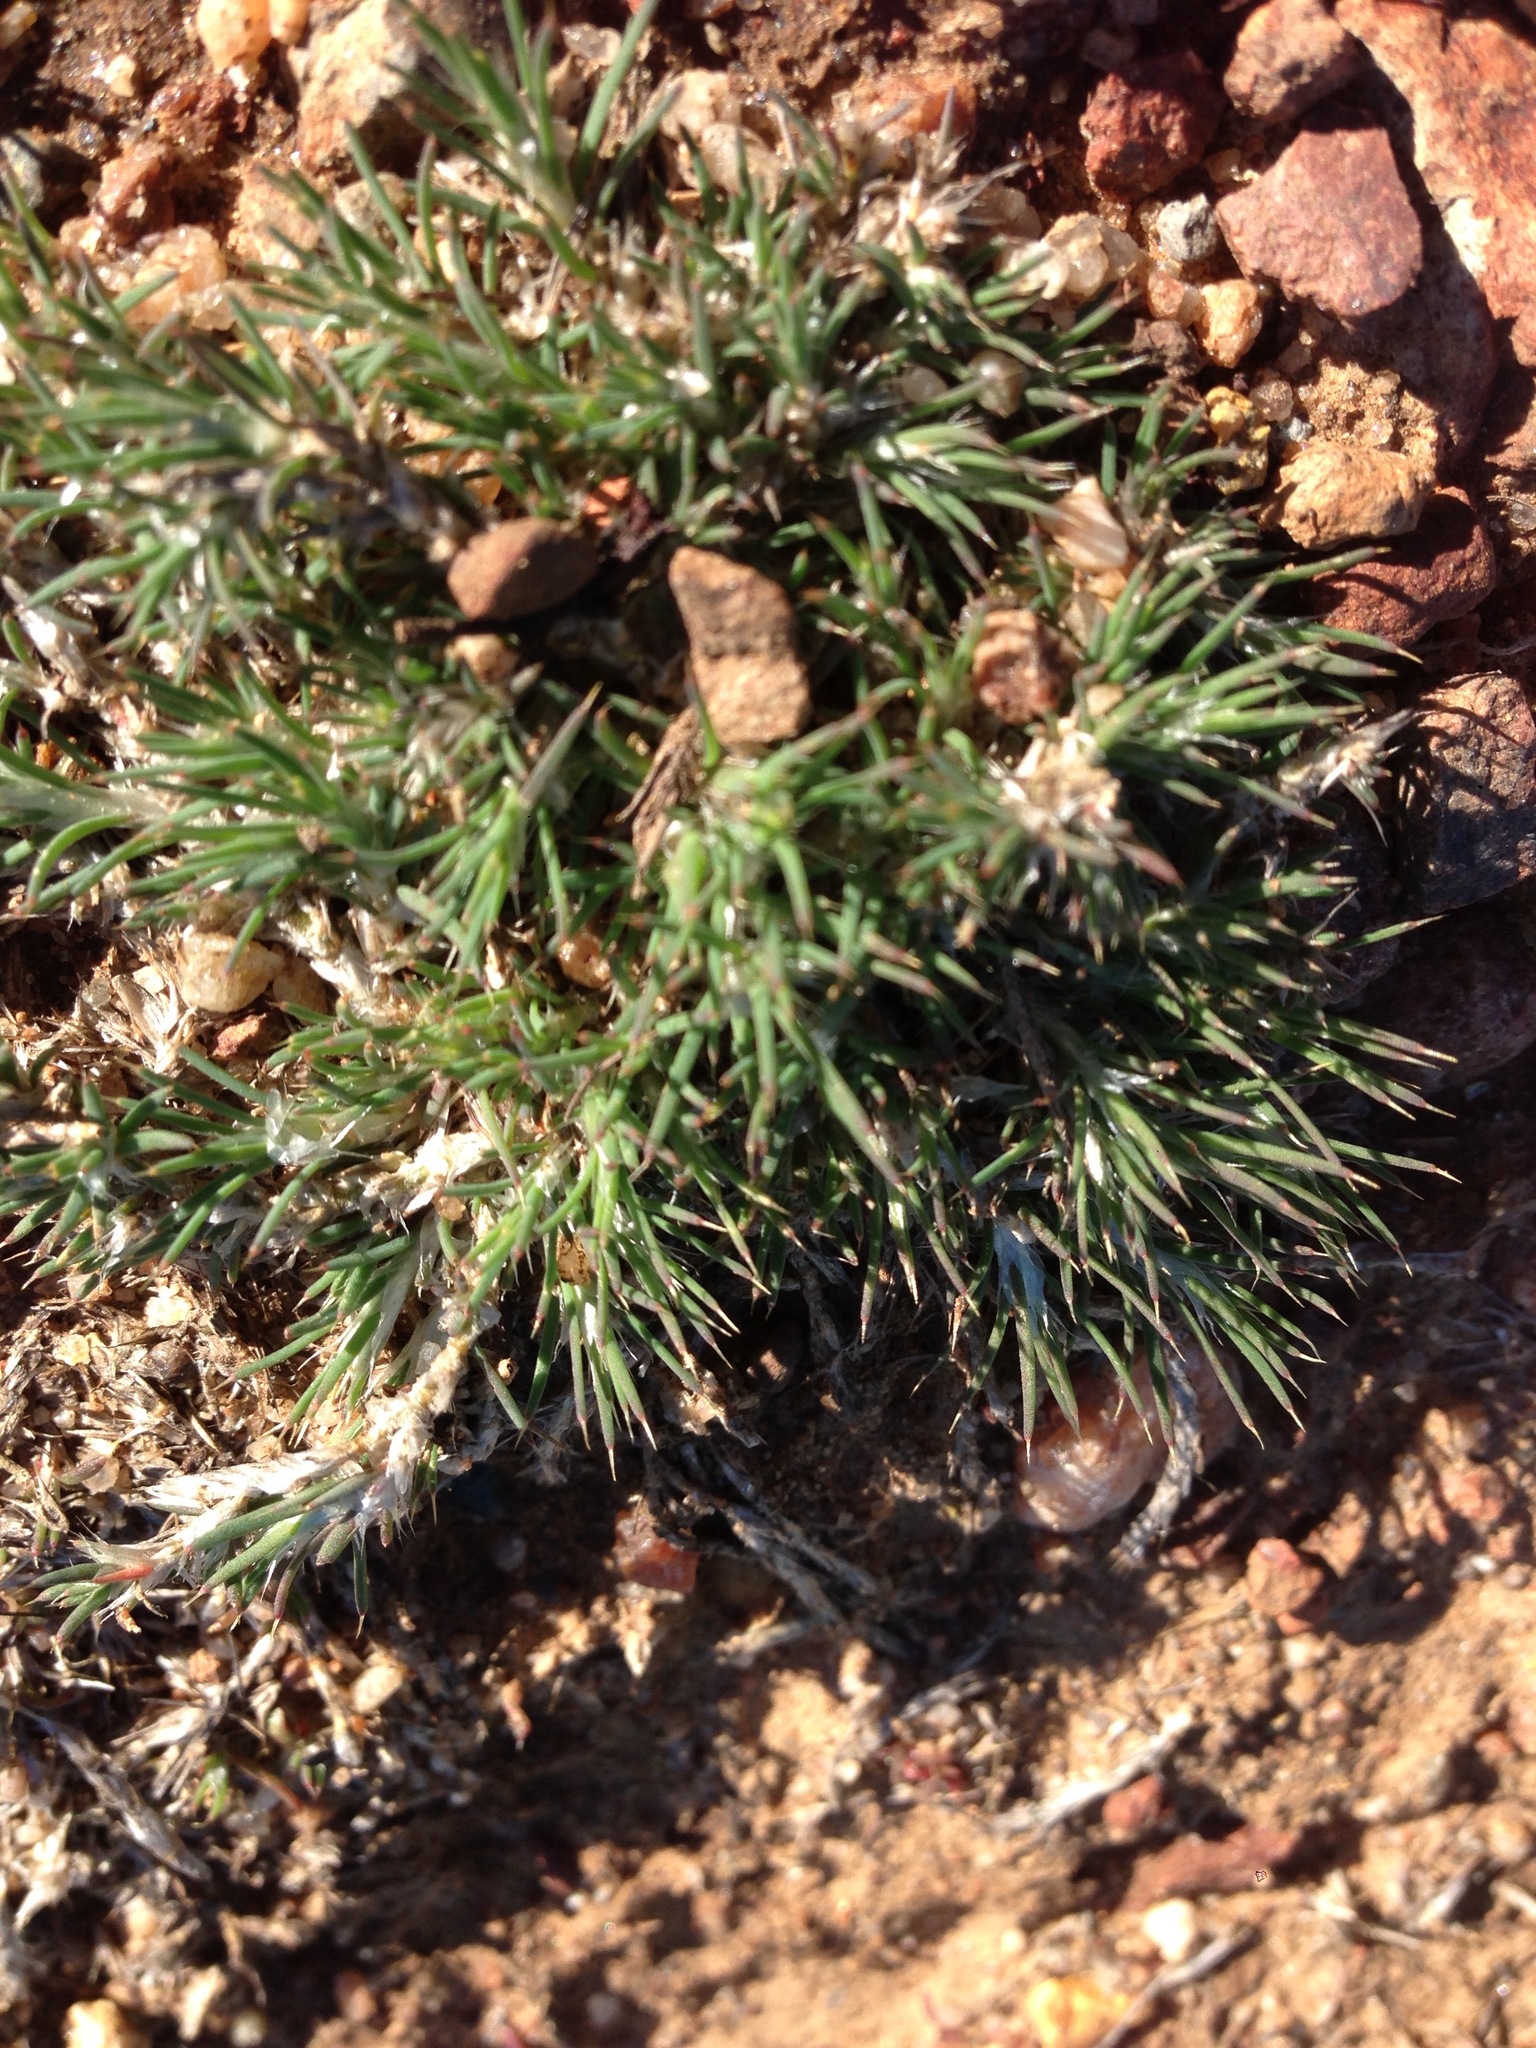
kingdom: Plantae
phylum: Tracheophyta
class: Magnoliopsida
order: Caryophyllales
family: Caryophyllaceae
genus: Cardionema
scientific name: Cardionema ramosissima
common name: Sandcarpet
